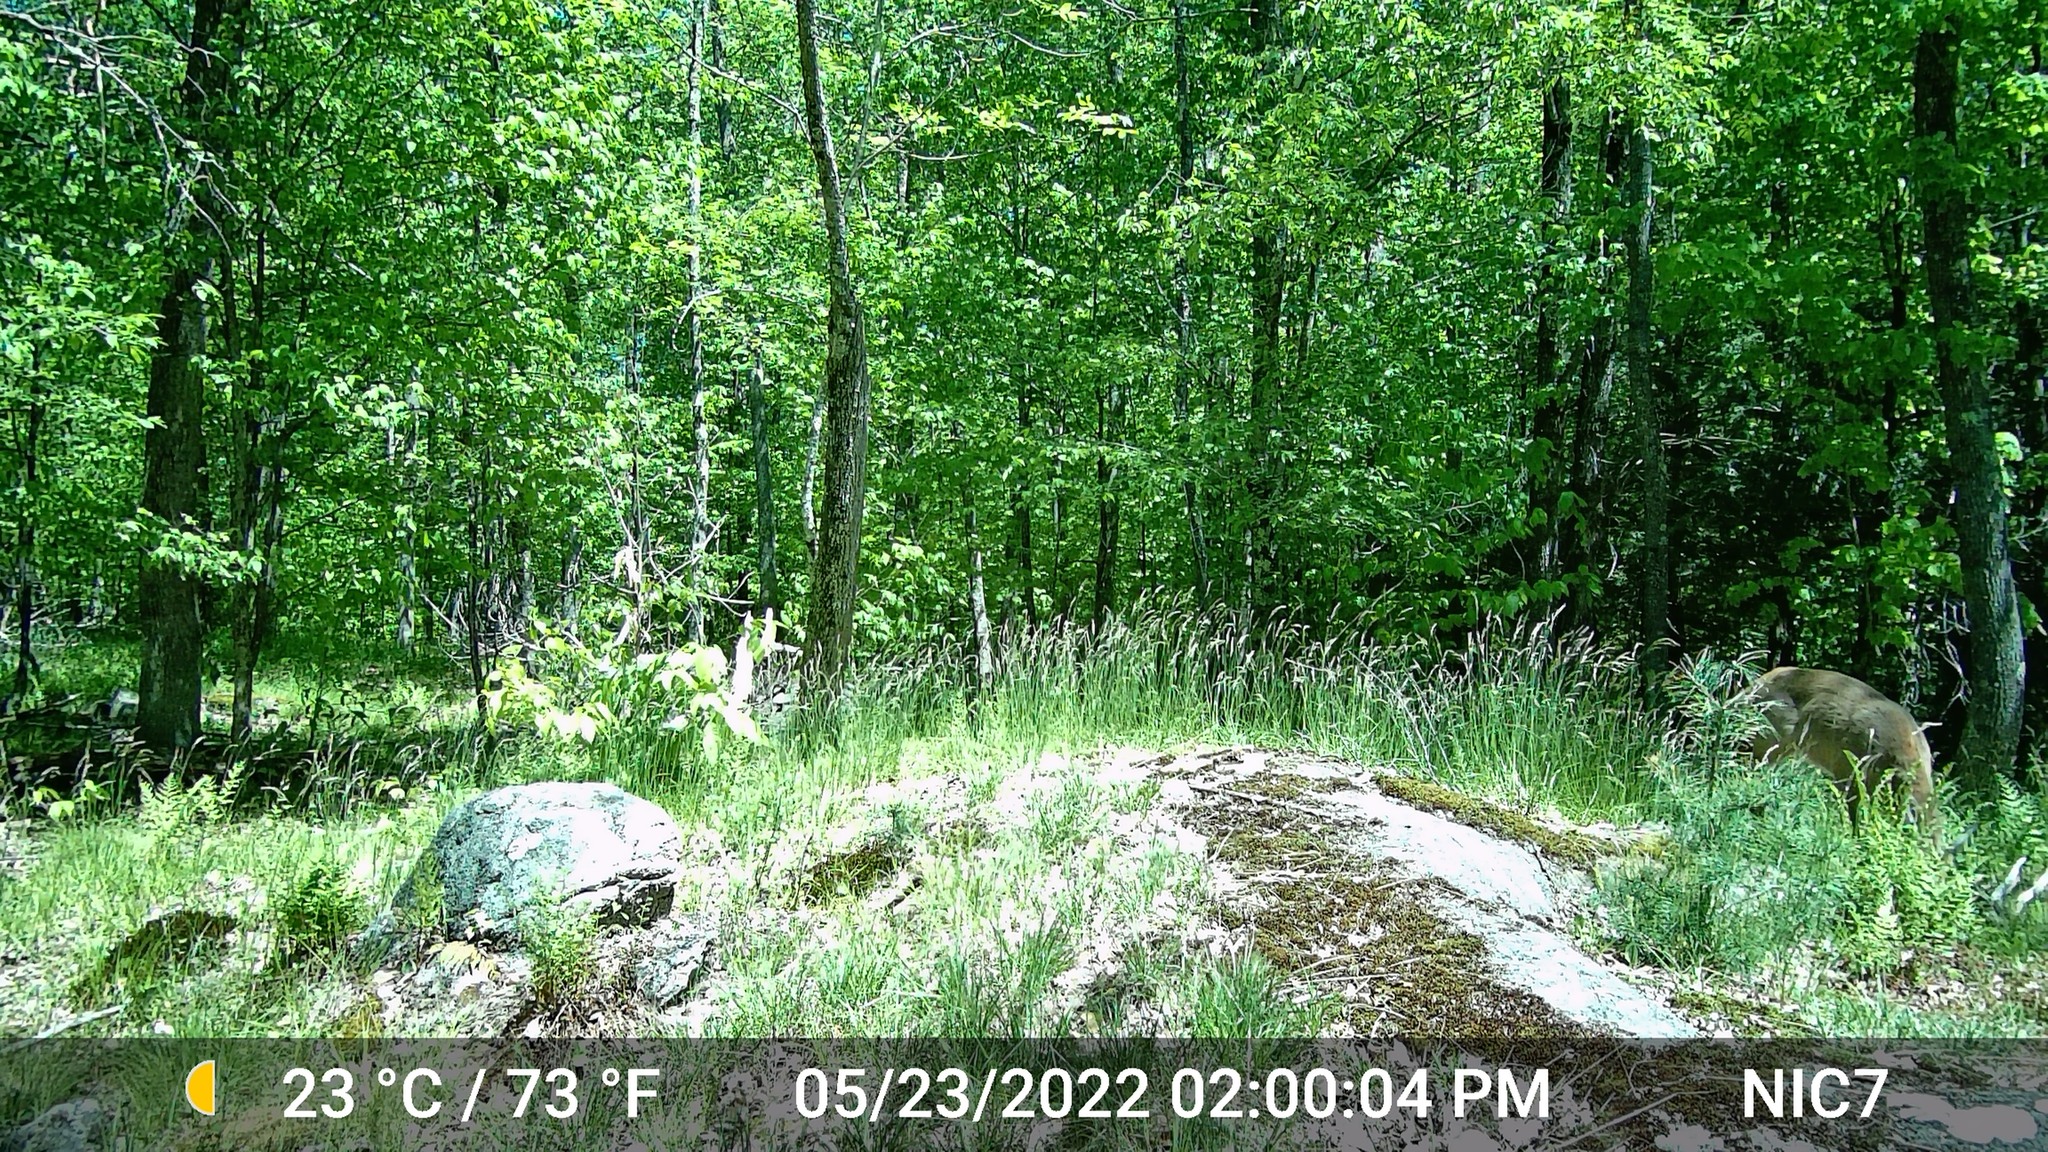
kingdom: Animalia
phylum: Chordata
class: Mammalia
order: Artiodactyla
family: Cervidae
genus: Odocoileus
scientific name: Odocoileus virginianus
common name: White-tailed deer
